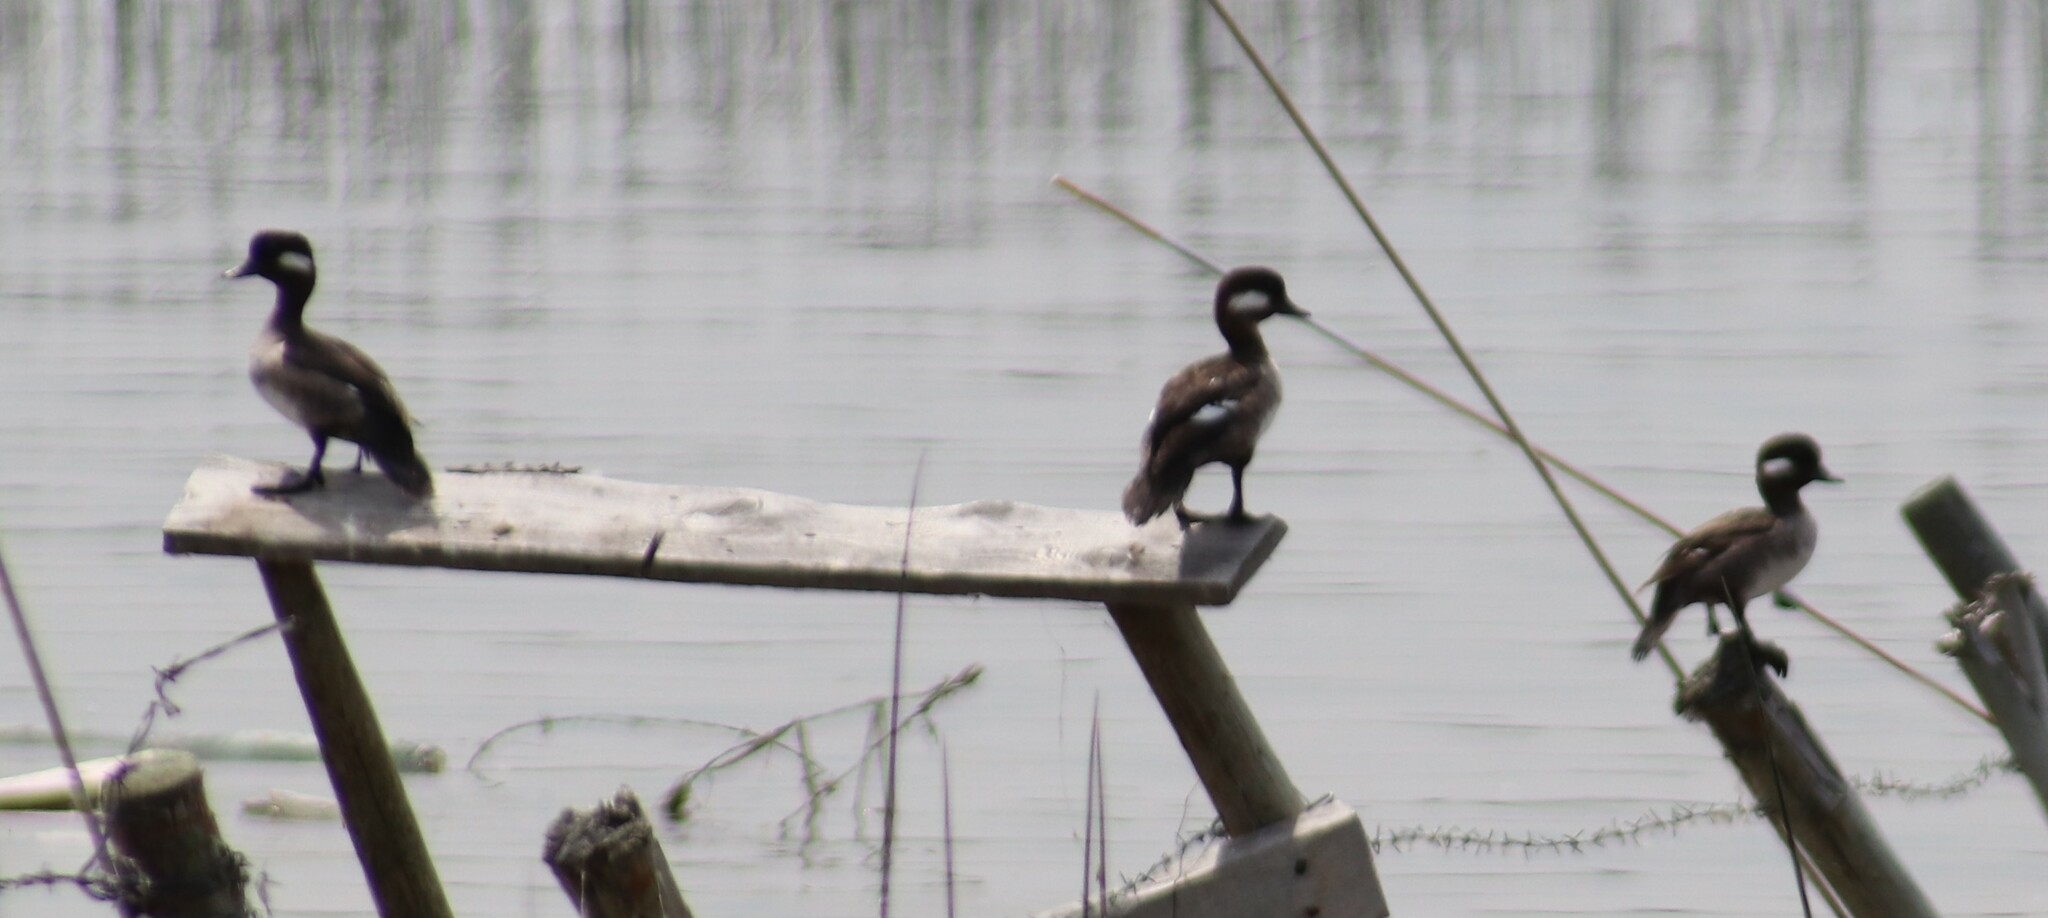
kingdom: Animalia
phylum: Chordata
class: Aves
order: Anseriformes
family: Anatidae
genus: Bucephala
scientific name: Bucephala albeola
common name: Bufflehead
